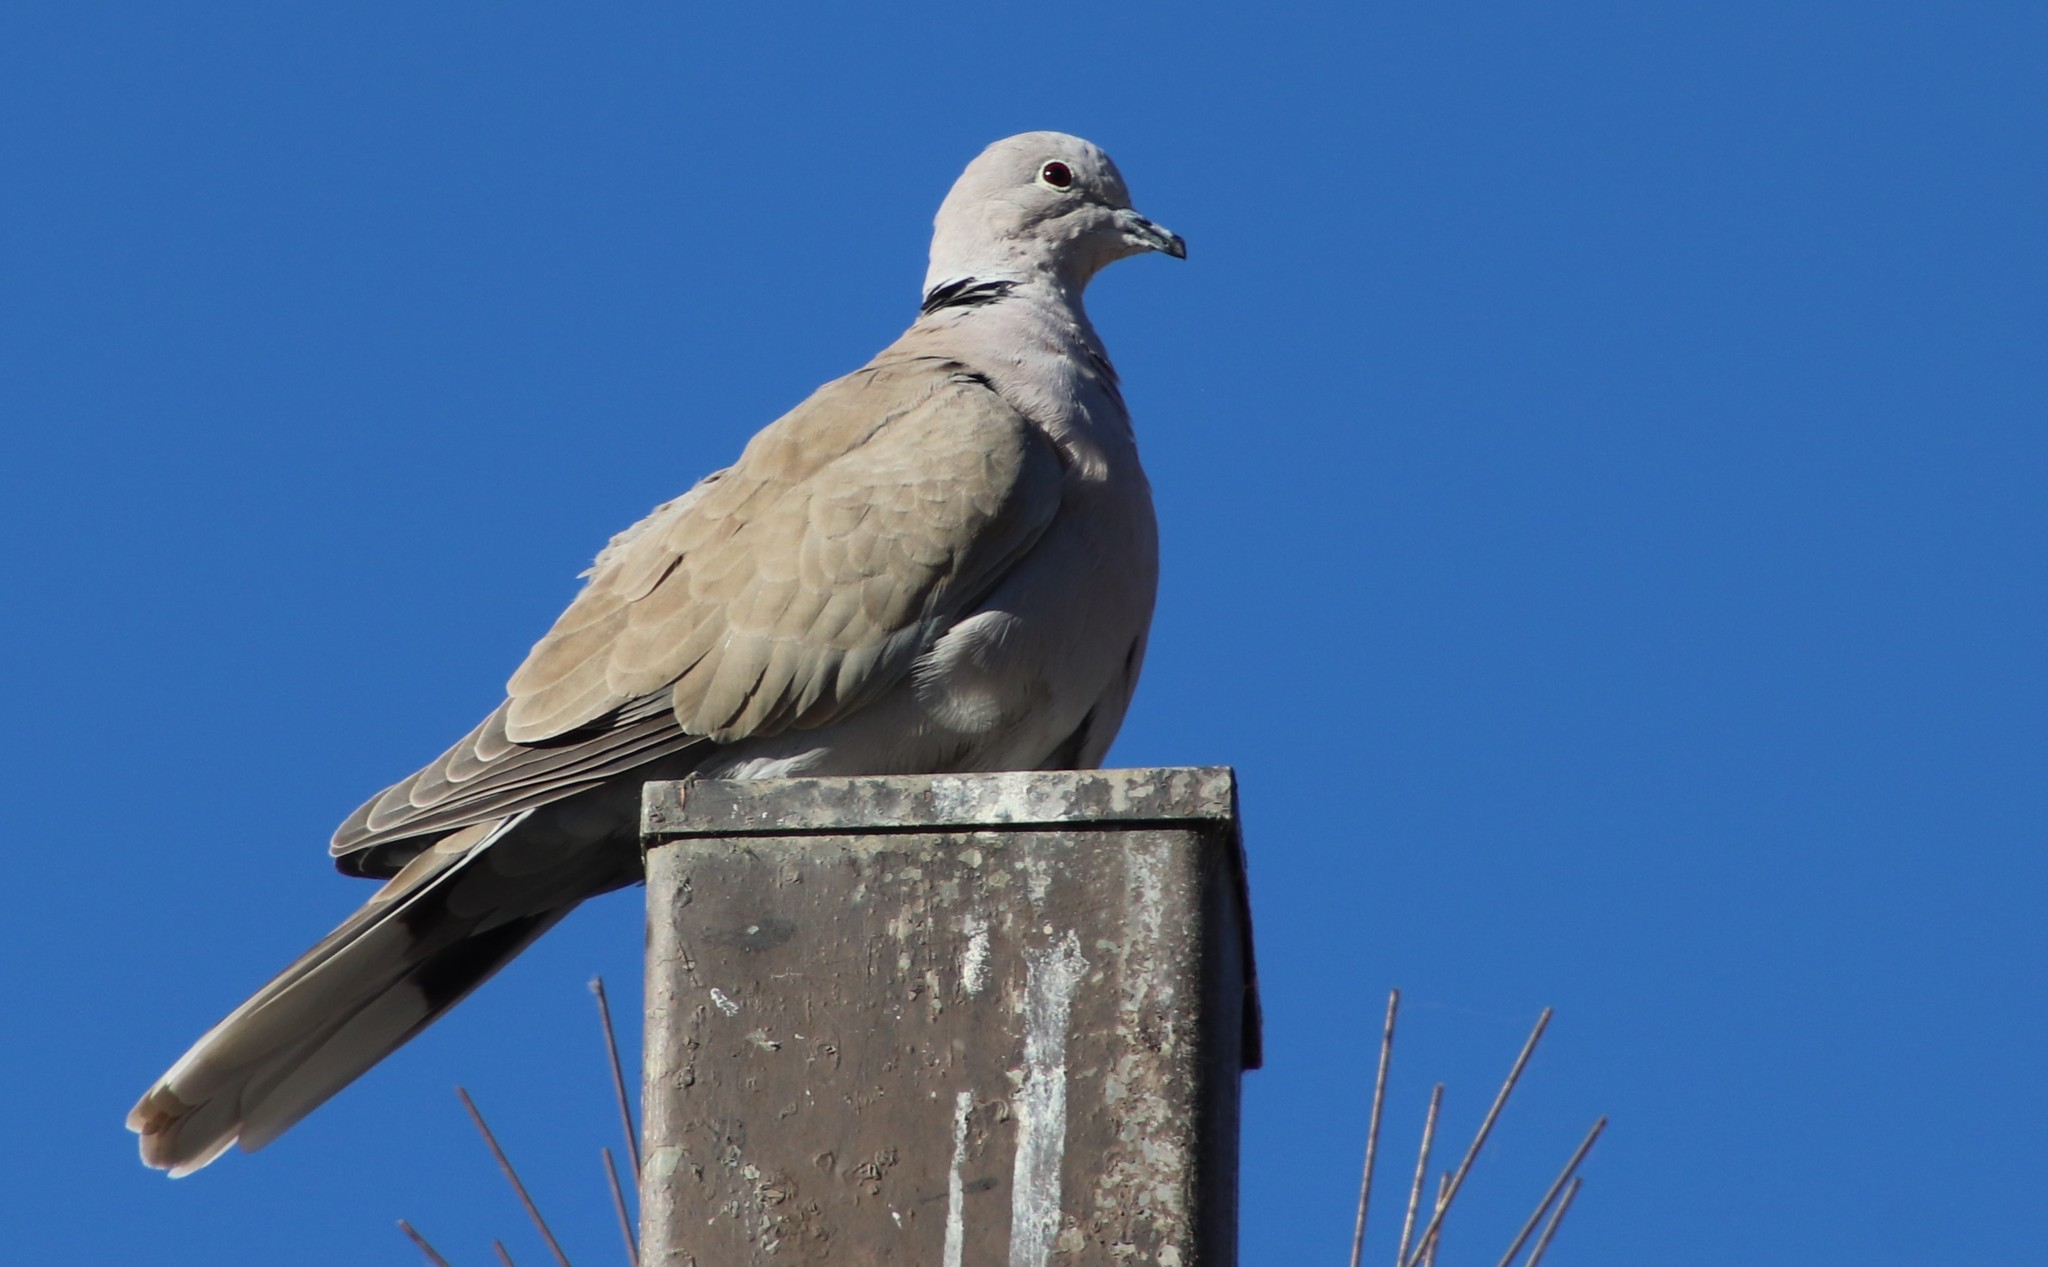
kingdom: Animalia
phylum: Chordata
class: Aves
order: Columbiformes
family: Columbidae
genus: Streptopelia
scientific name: Streptopelia decaocto
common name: Eurasian collared dove
